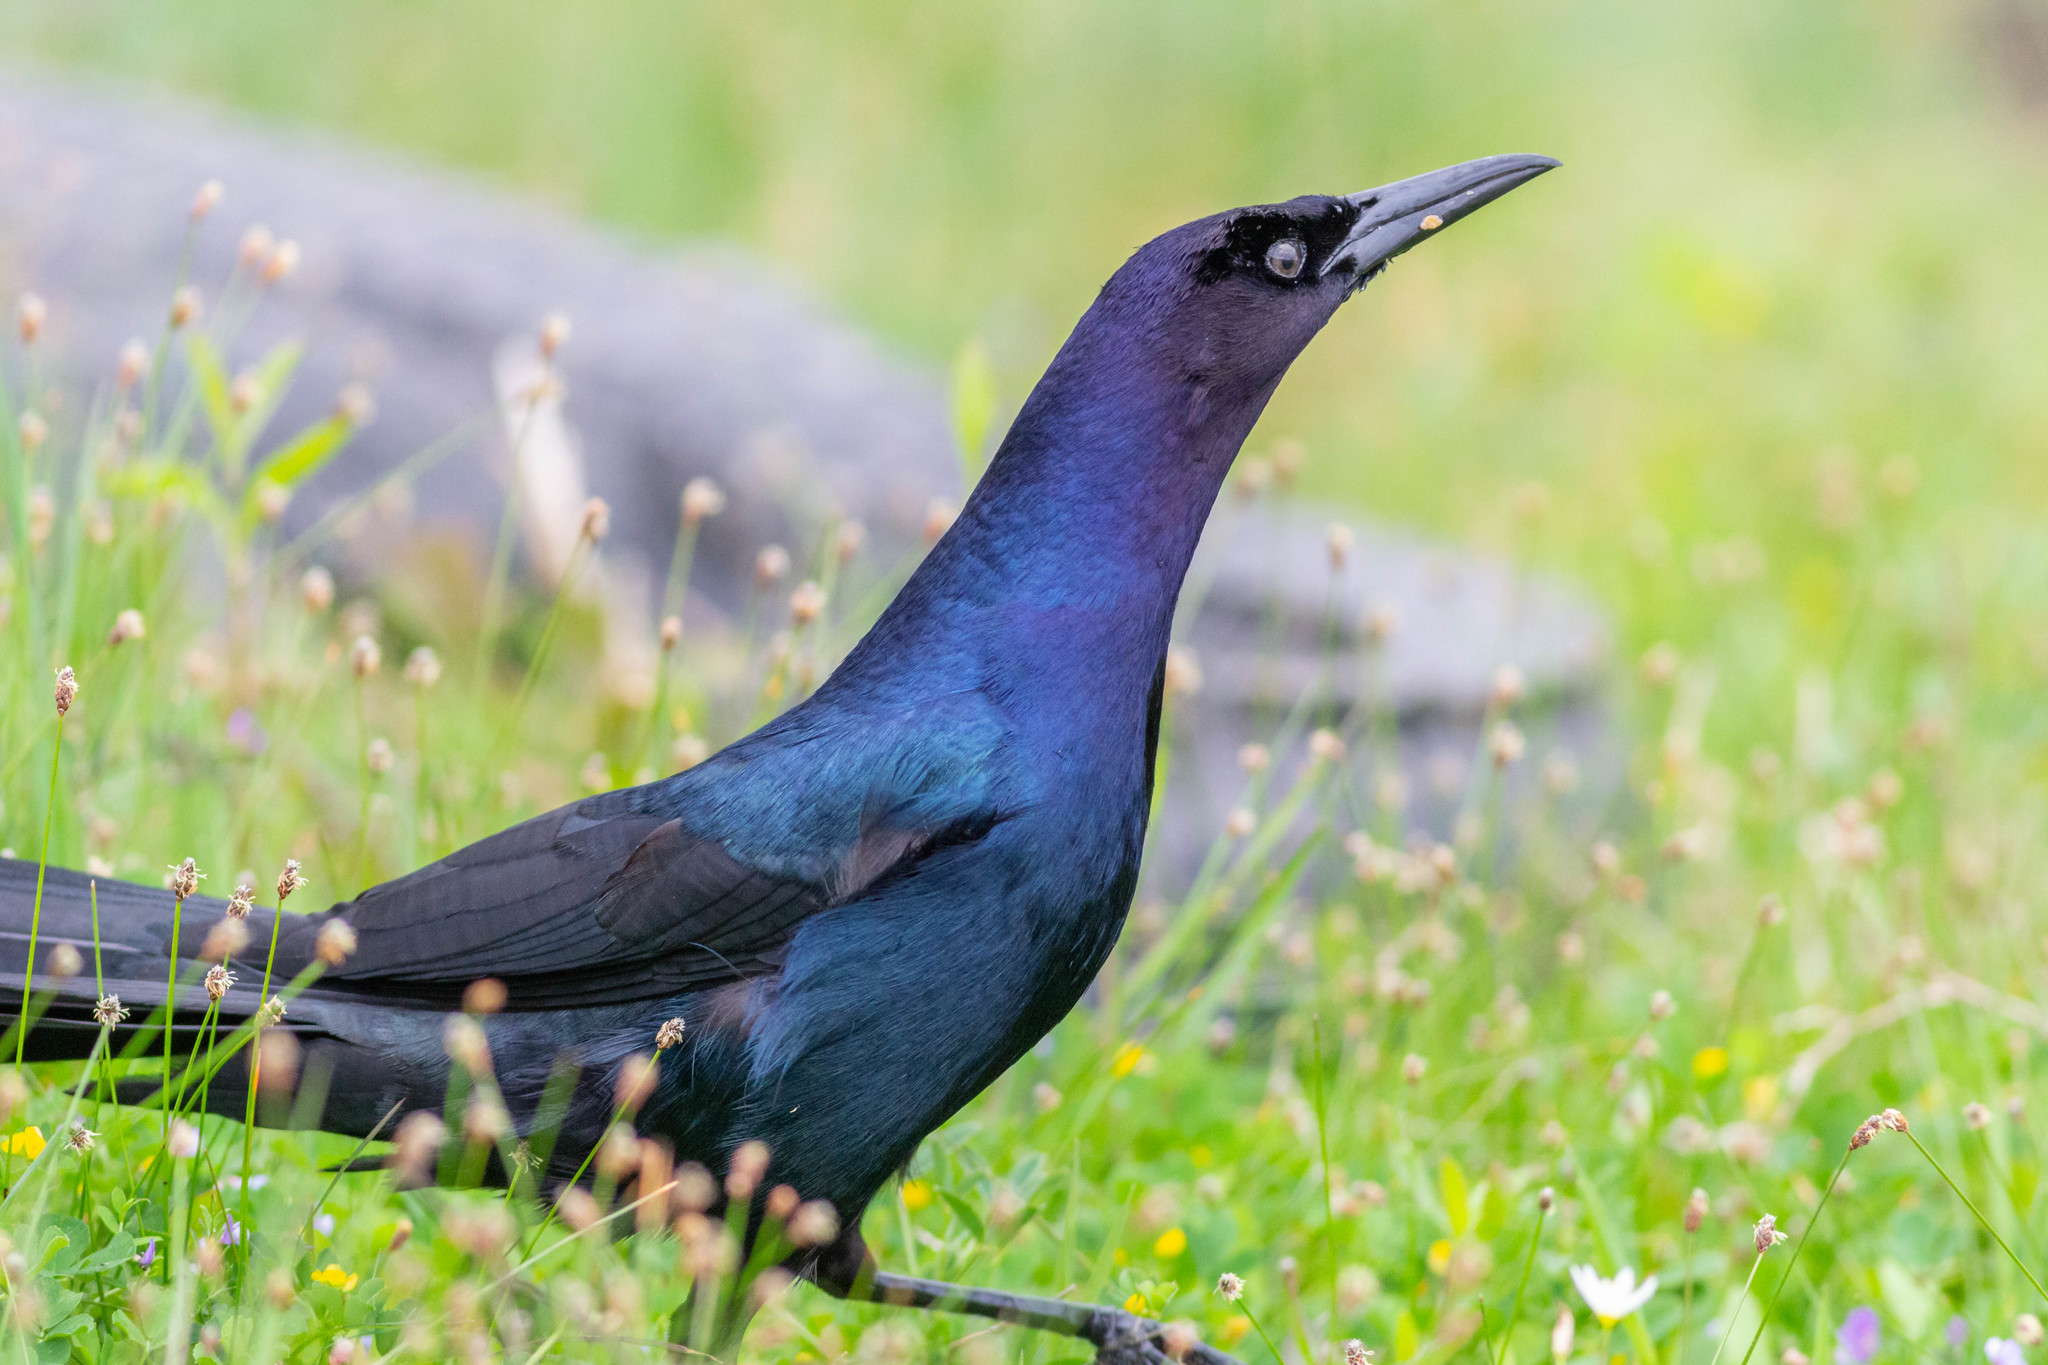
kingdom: Animalia
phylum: Chordata
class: Aves
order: Passeriformes
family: Icteridae
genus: Quiscalus
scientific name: Quiscalus major
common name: Boat-tailed grackle
